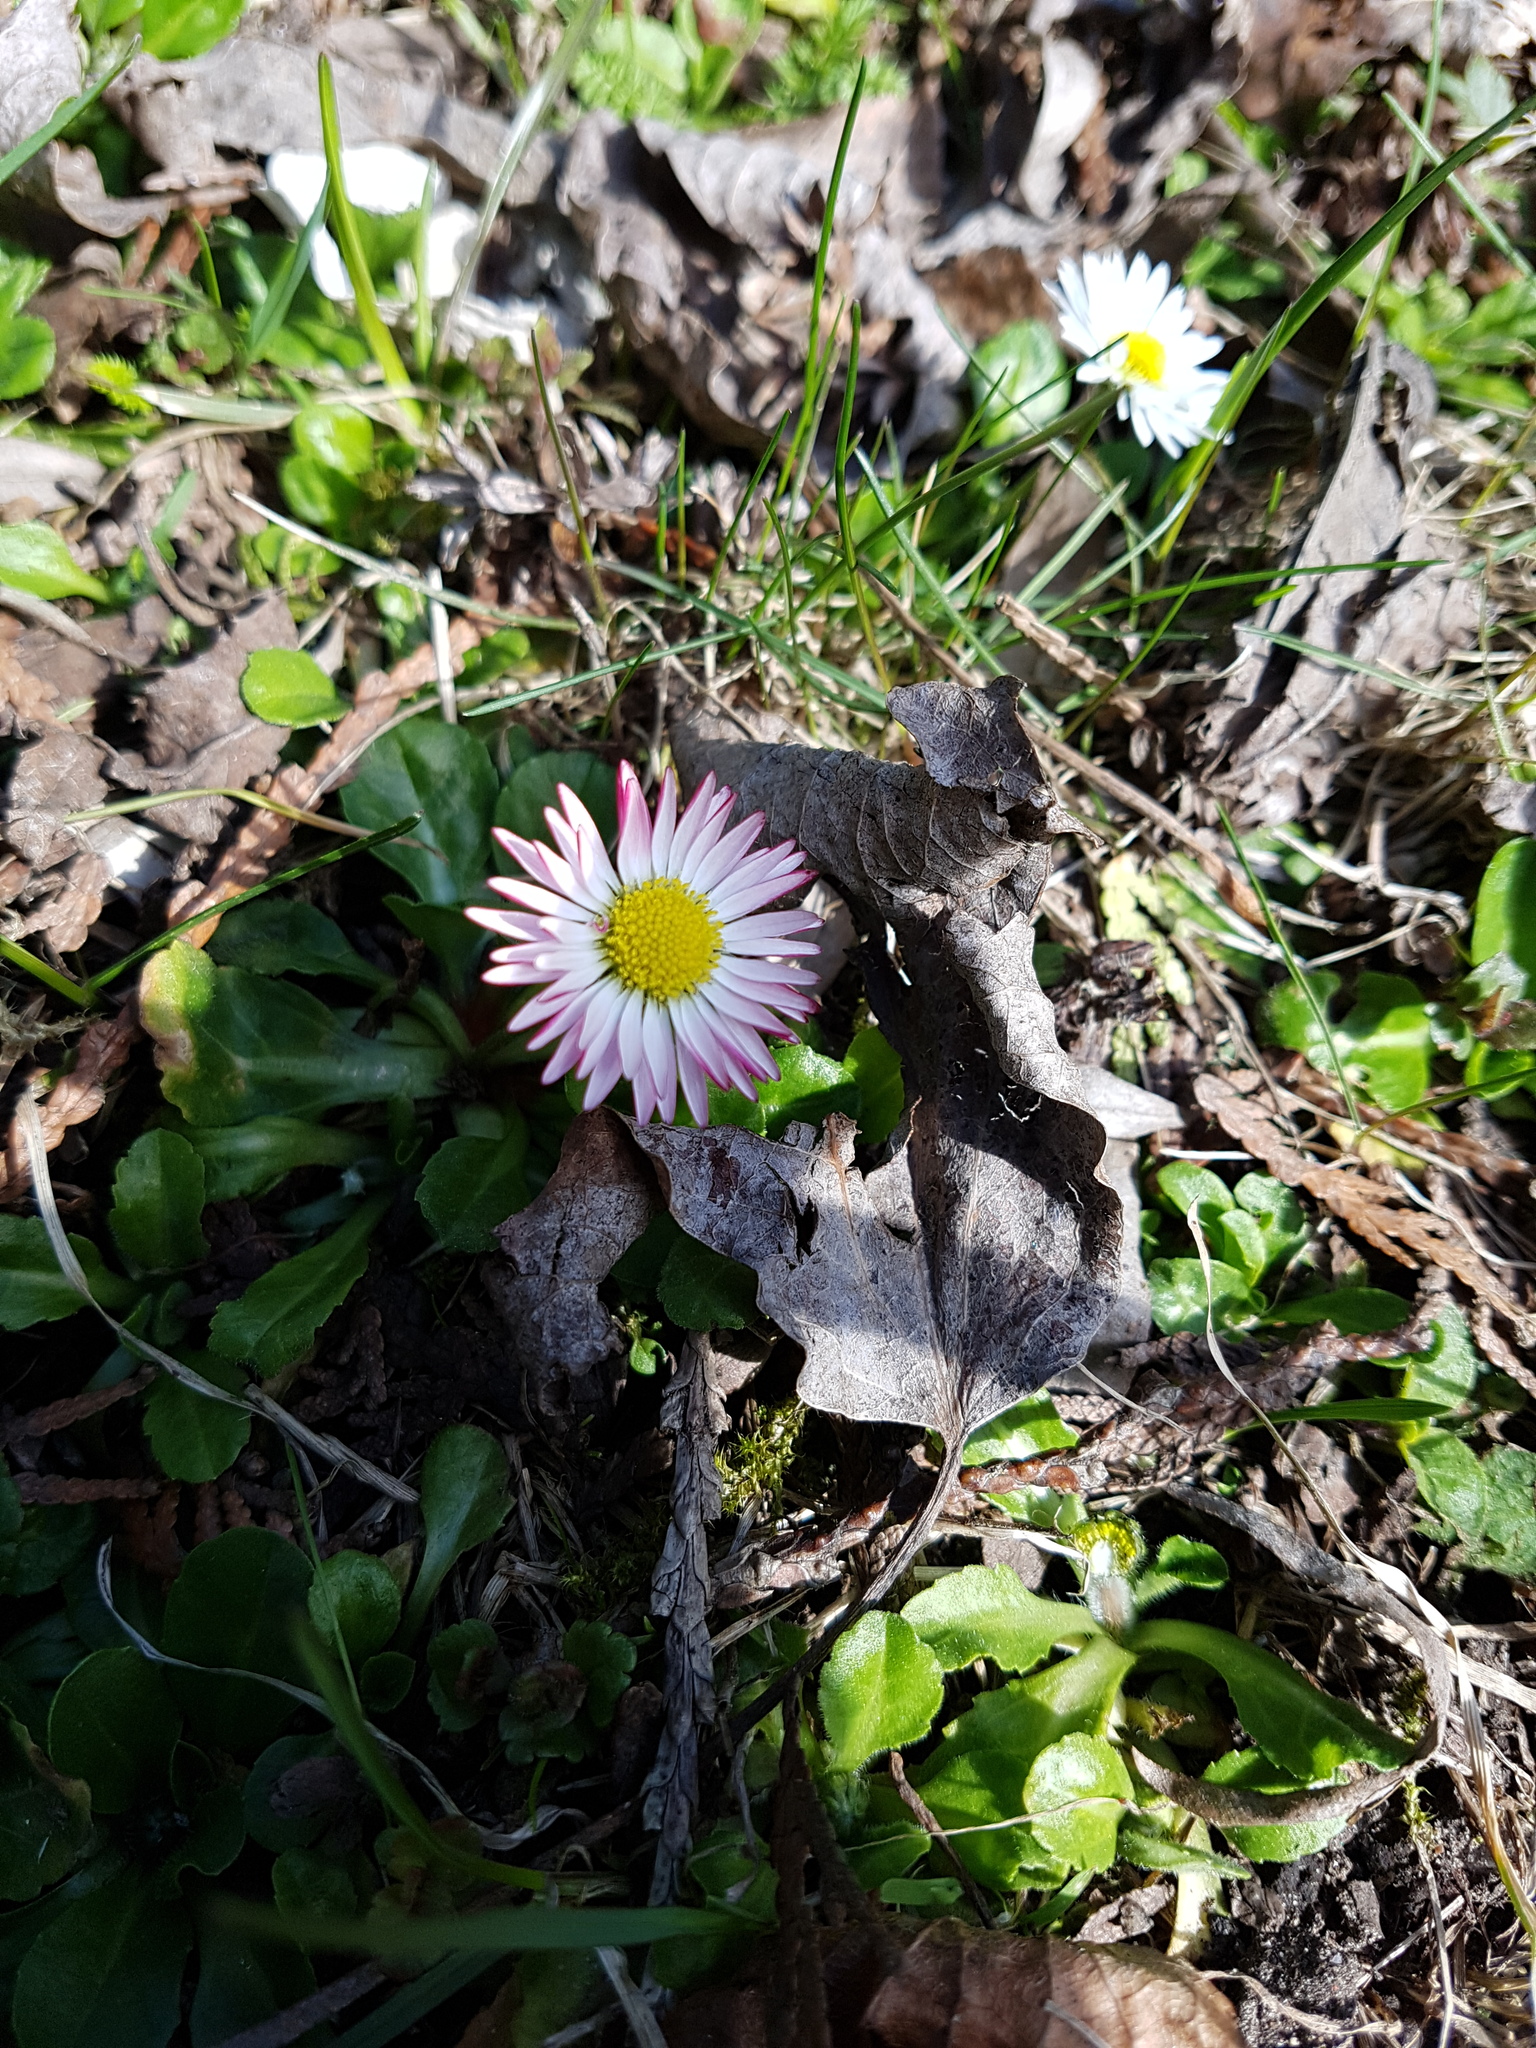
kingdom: Plantae
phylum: Tracheophyta
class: Magnoliopsida
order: Asterales
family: Asteraceae
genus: Bellis
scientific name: Bellis perennis
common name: Lawndaisy
